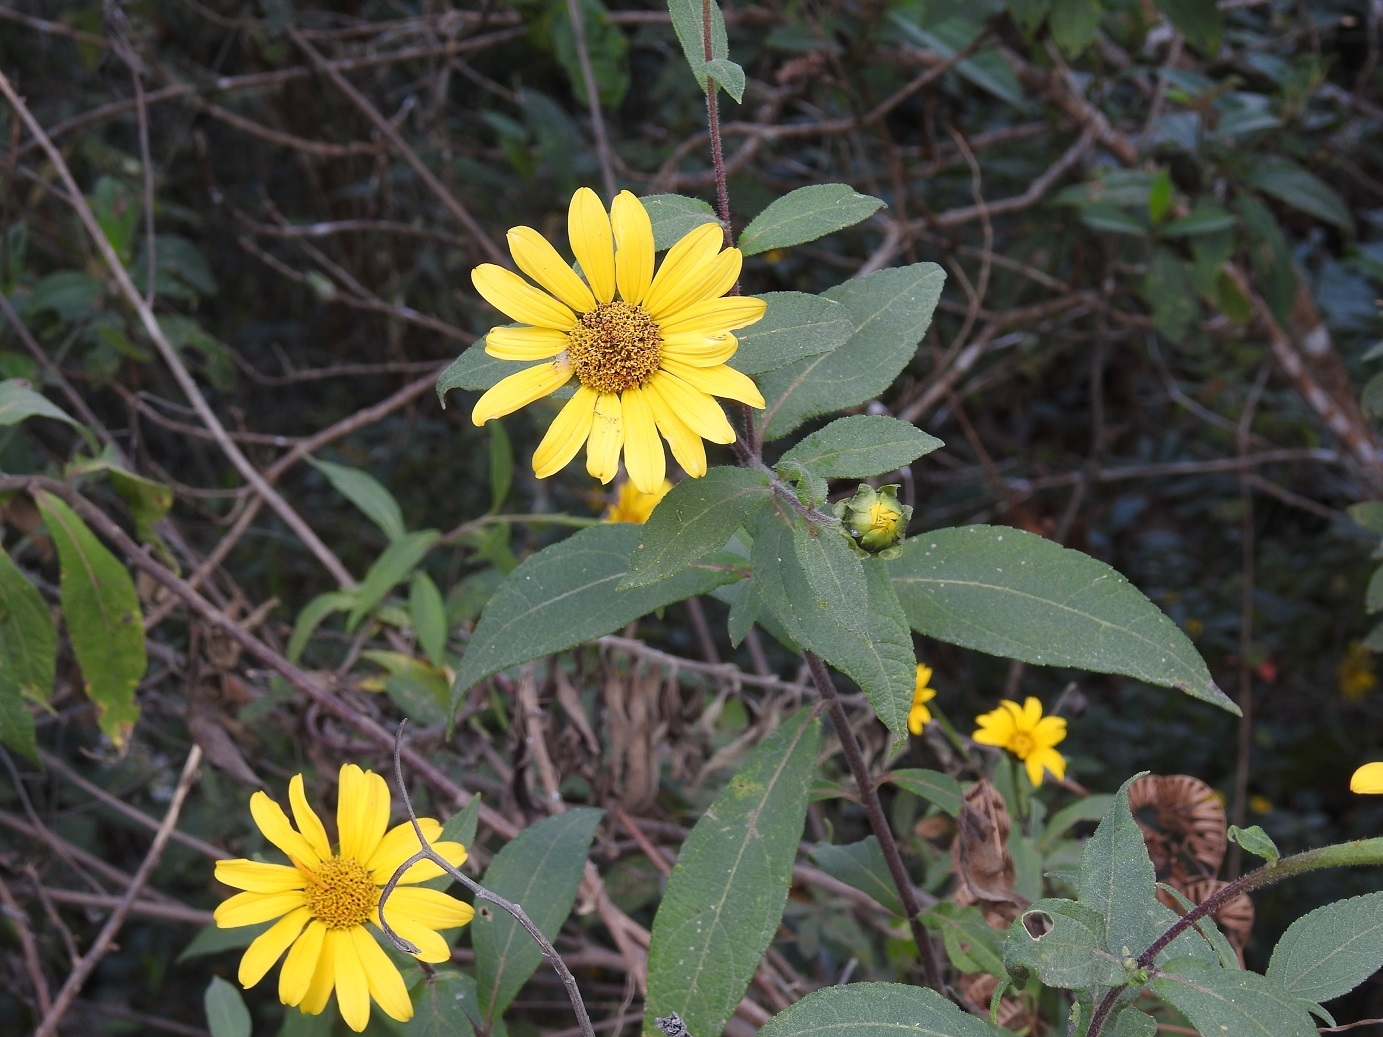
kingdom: Plantae
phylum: Tracheophyta
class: Magnoliopsida
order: Asterales
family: Asteraceae
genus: Tithonia
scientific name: Tithonia longiradiata
